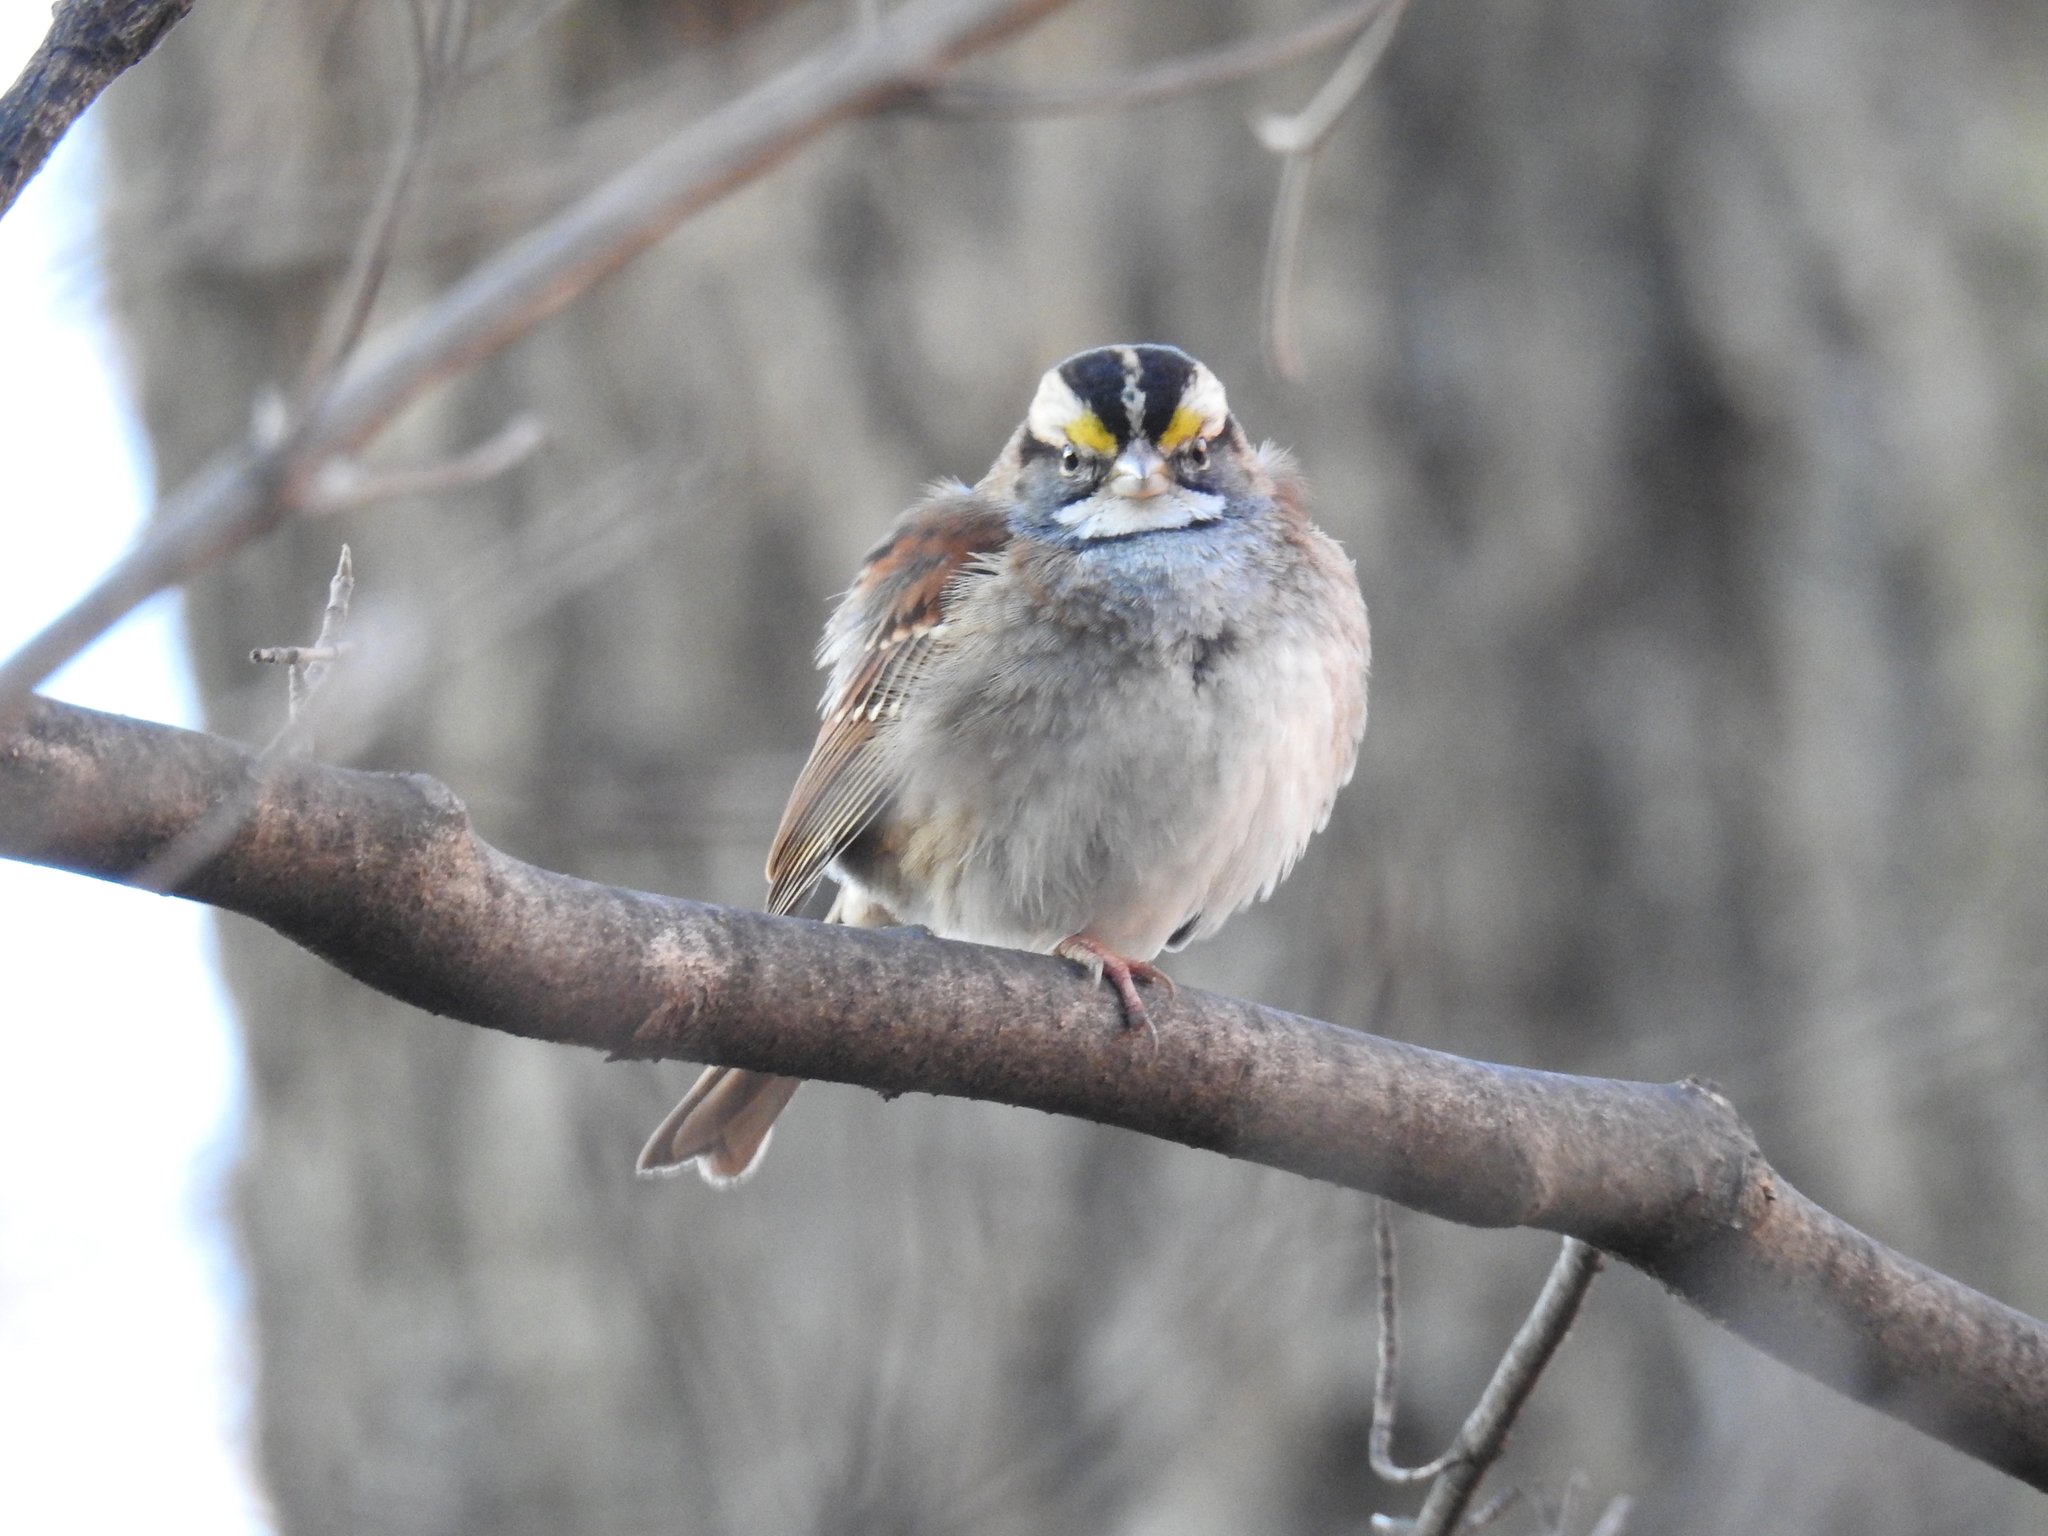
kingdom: Animalia
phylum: Chordata
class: Aves
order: Passeriformes
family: Passerellidae
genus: Zonotrichia
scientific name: Zonotrichia albicollis
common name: White-throated sparrow
